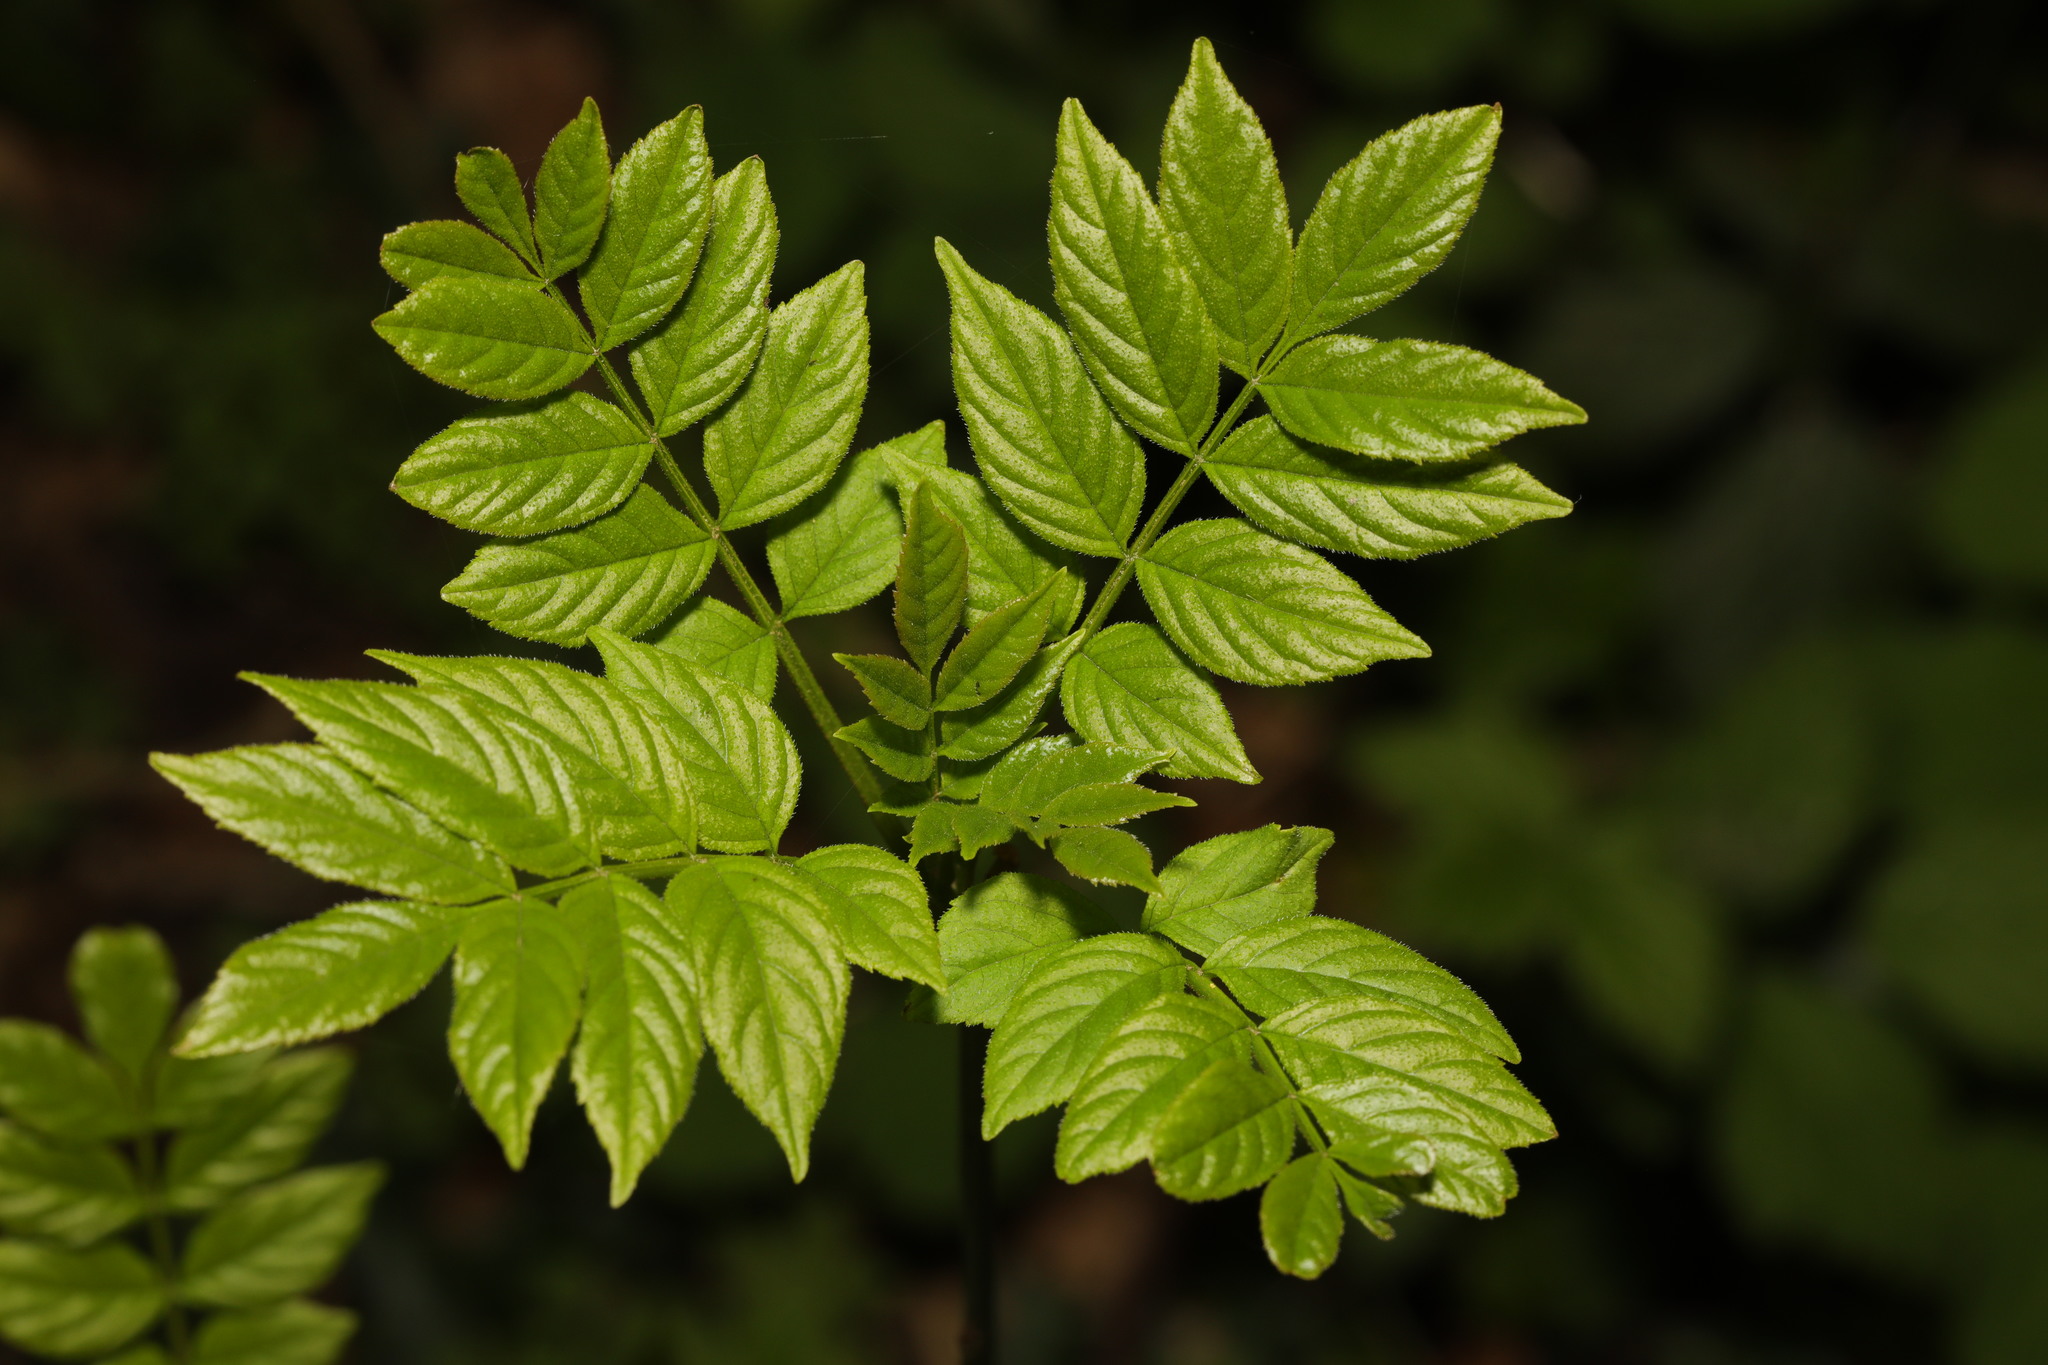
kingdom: Plantae
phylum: Tracheophyta
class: Magnoliopsida
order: Lamiales
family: Oleaceae
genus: Fraxinus
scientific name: Fraxinus excelsior
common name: European ash
